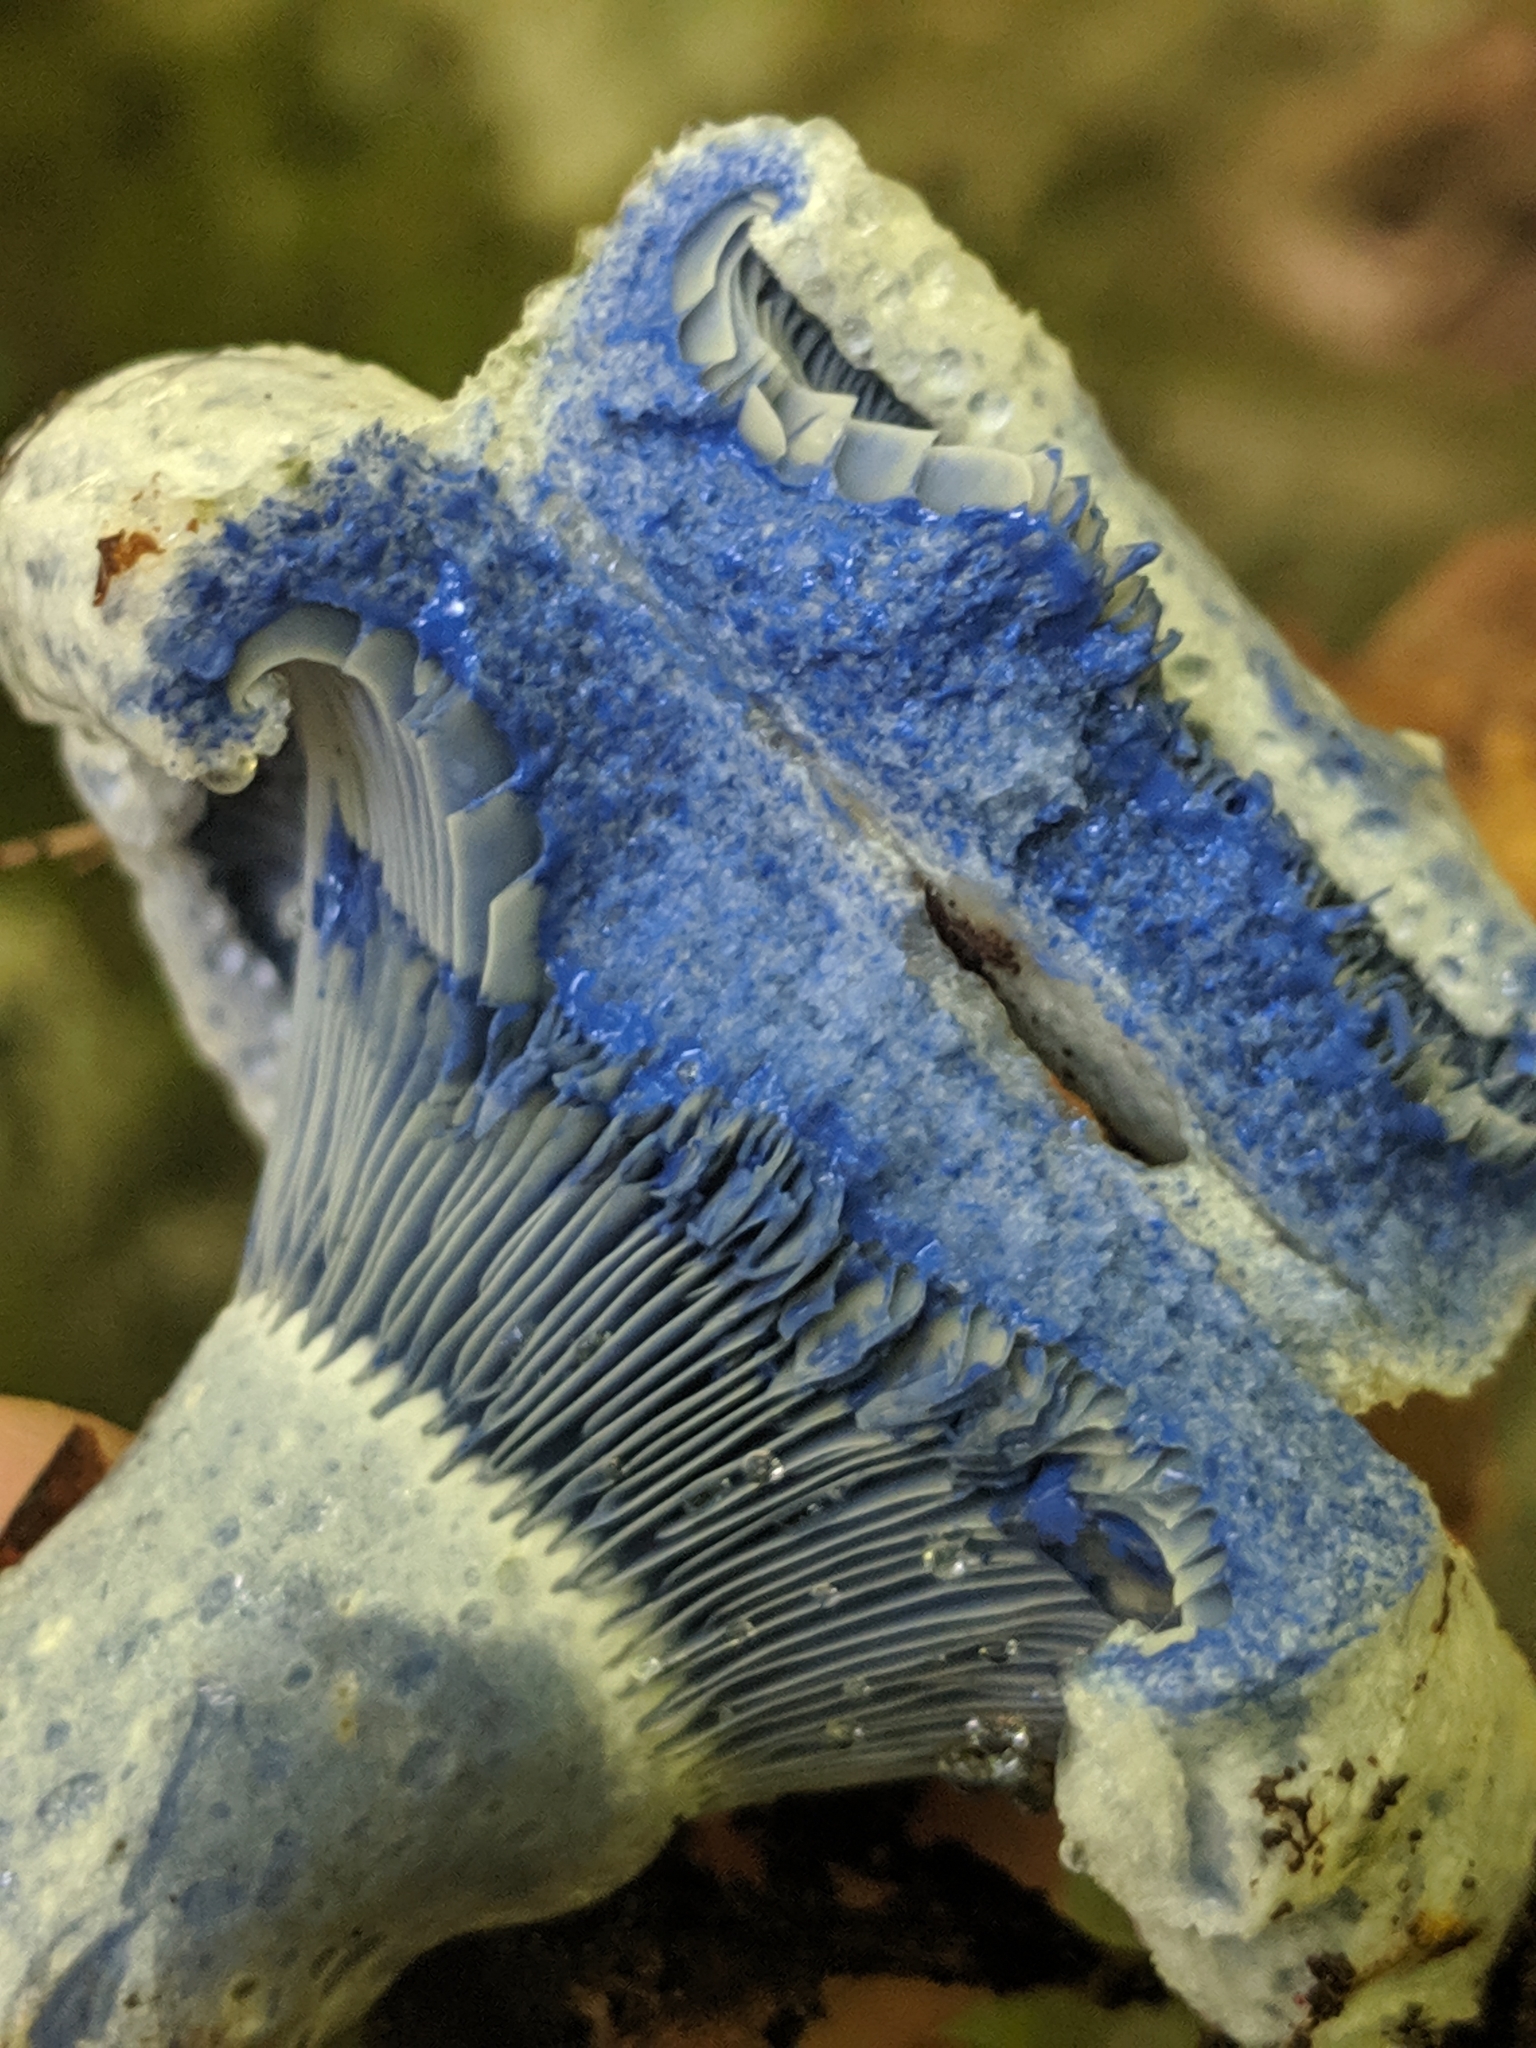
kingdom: Fungi
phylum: Basidiomycota
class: Agaricomycetes
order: Russulales
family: Russulaceae
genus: Lactarius
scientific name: Lactarius indigo
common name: Indigo milk cap
